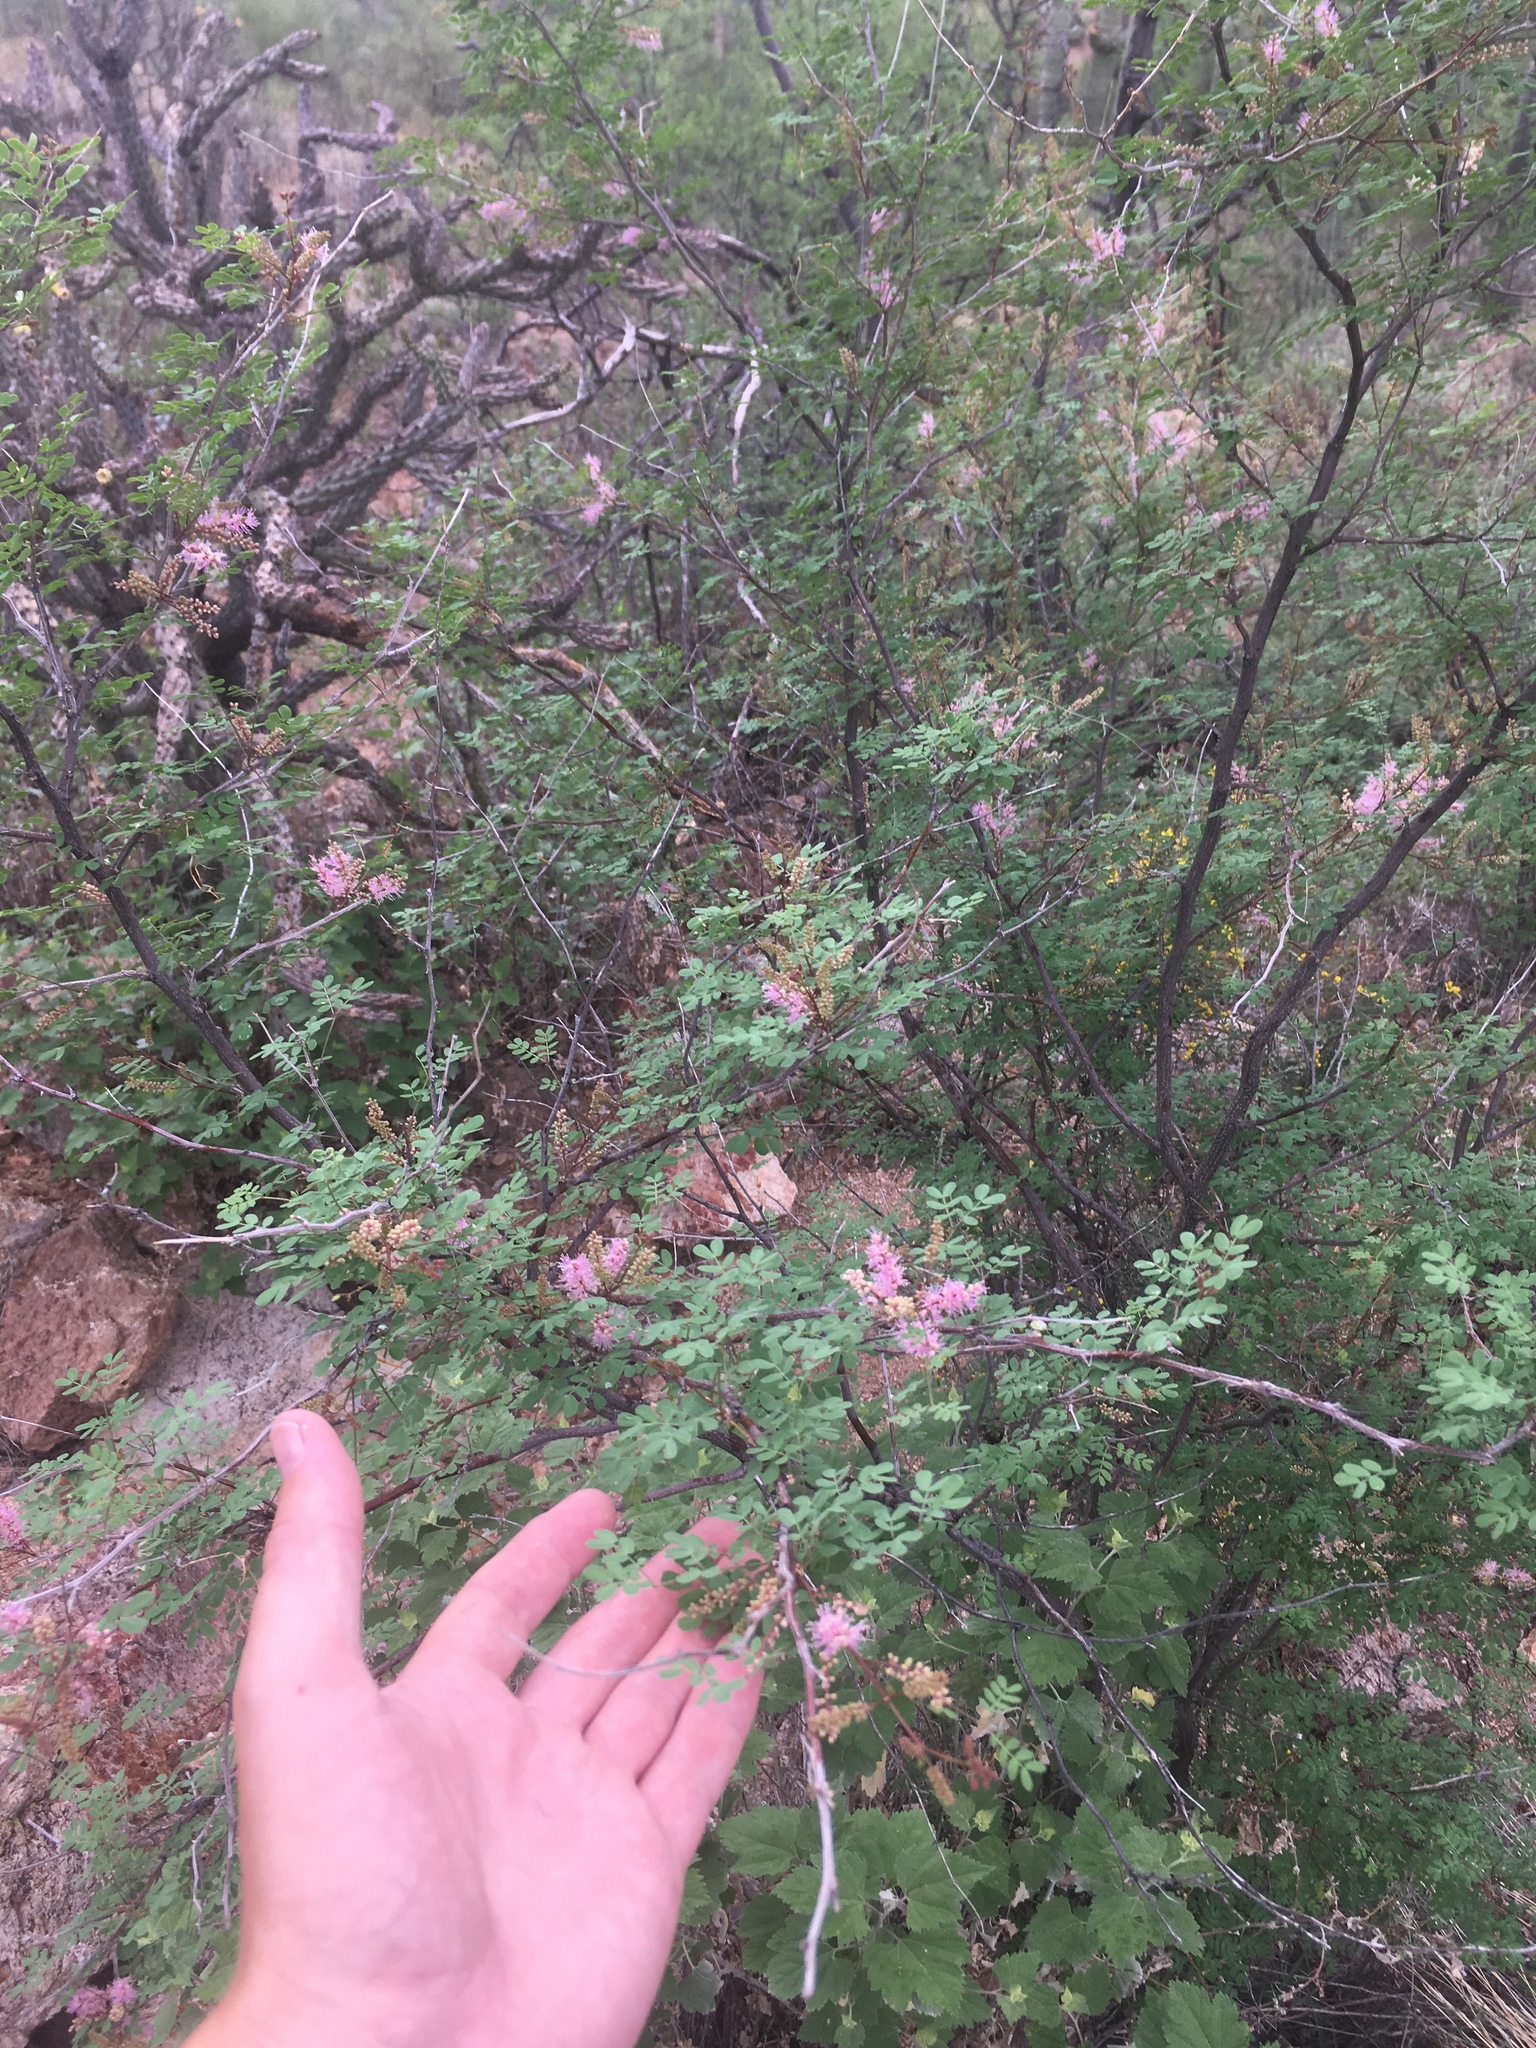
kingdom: Plantae
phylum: Tracheophyta
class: Magnoliopsida
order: Fabales
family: Fabaceae
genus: Mimosa
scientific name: Mimosa distachya
